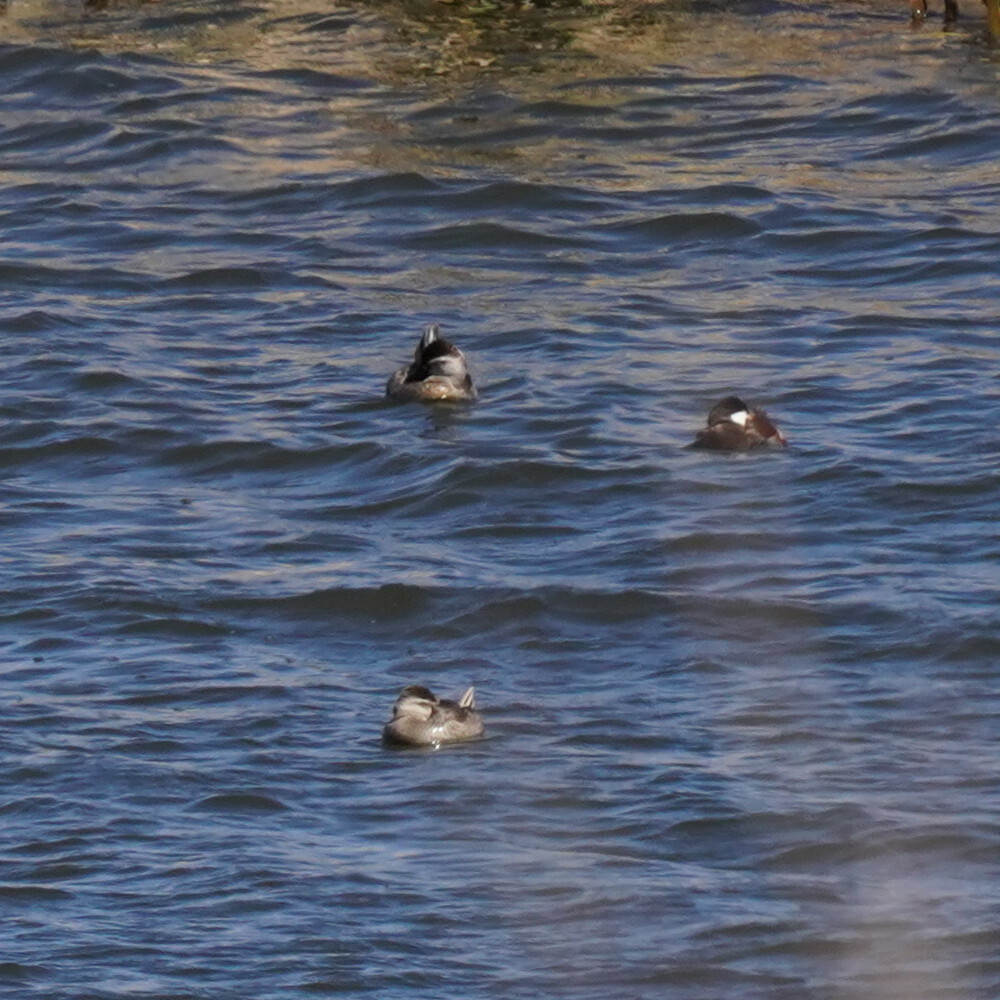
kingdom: Animalia
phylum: Chordata
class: Aves
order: Anseriformes
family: Anatidae
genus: Oxyura
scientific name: Oxyura jamaicensis
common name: Ruddy duck
